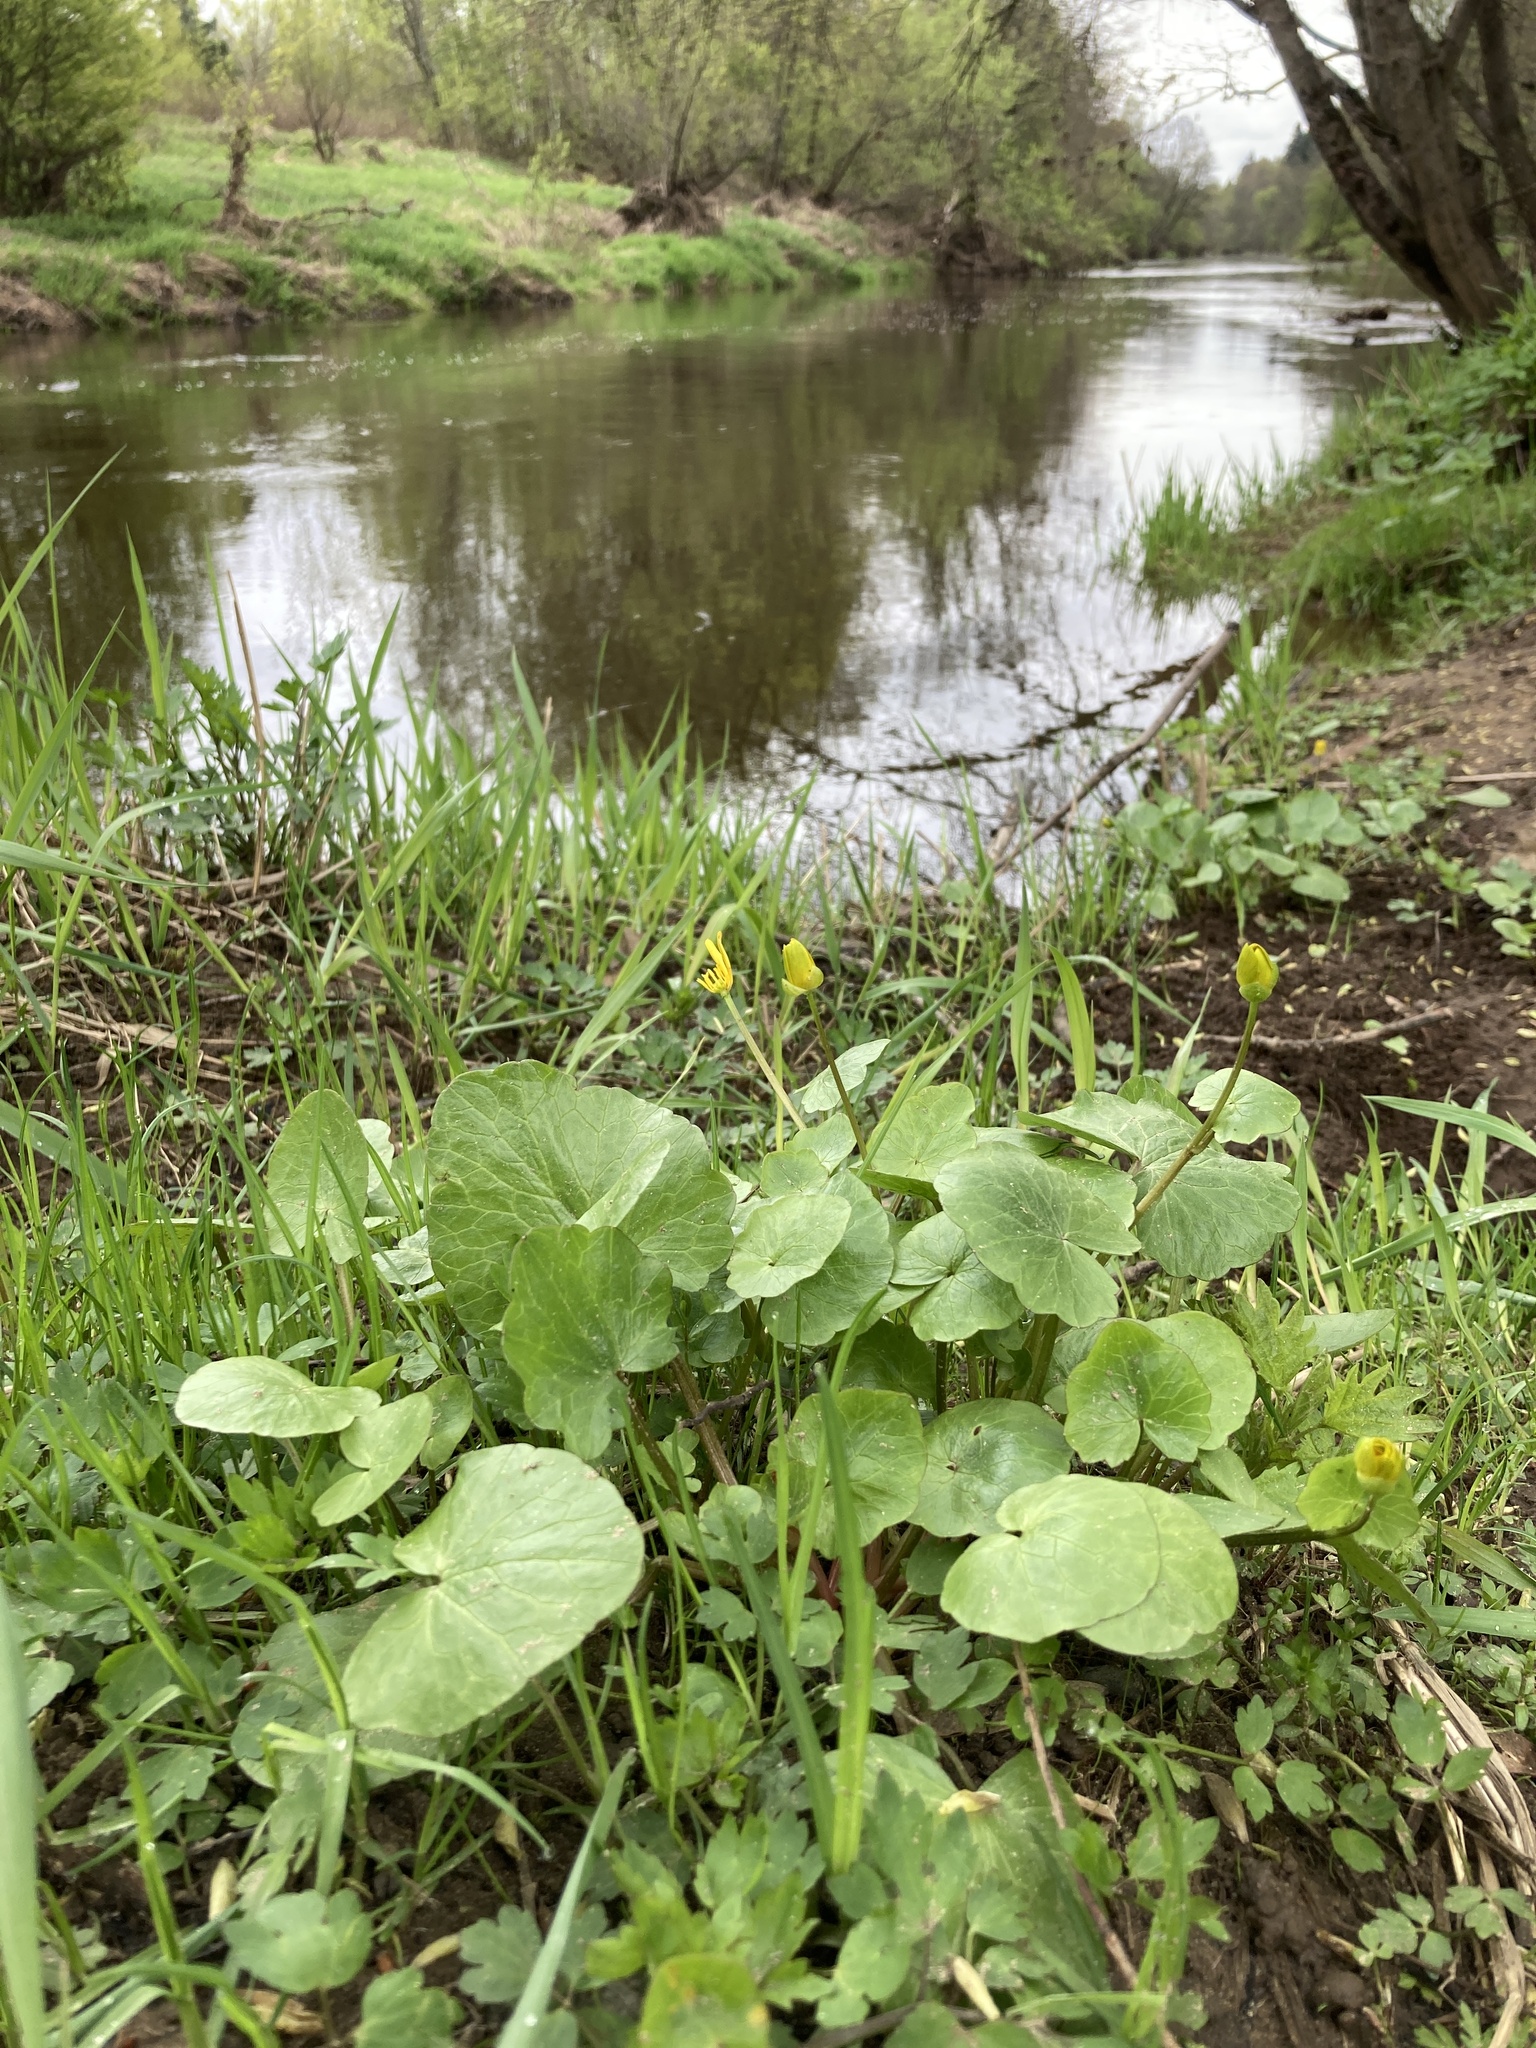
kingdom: Plantae
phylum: Tracheophyta
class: Magnoliopsida
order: Ranunculales
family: Ranunculaceae
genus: Ficaria
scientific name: Ficaria verna
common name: Lesser celandine
